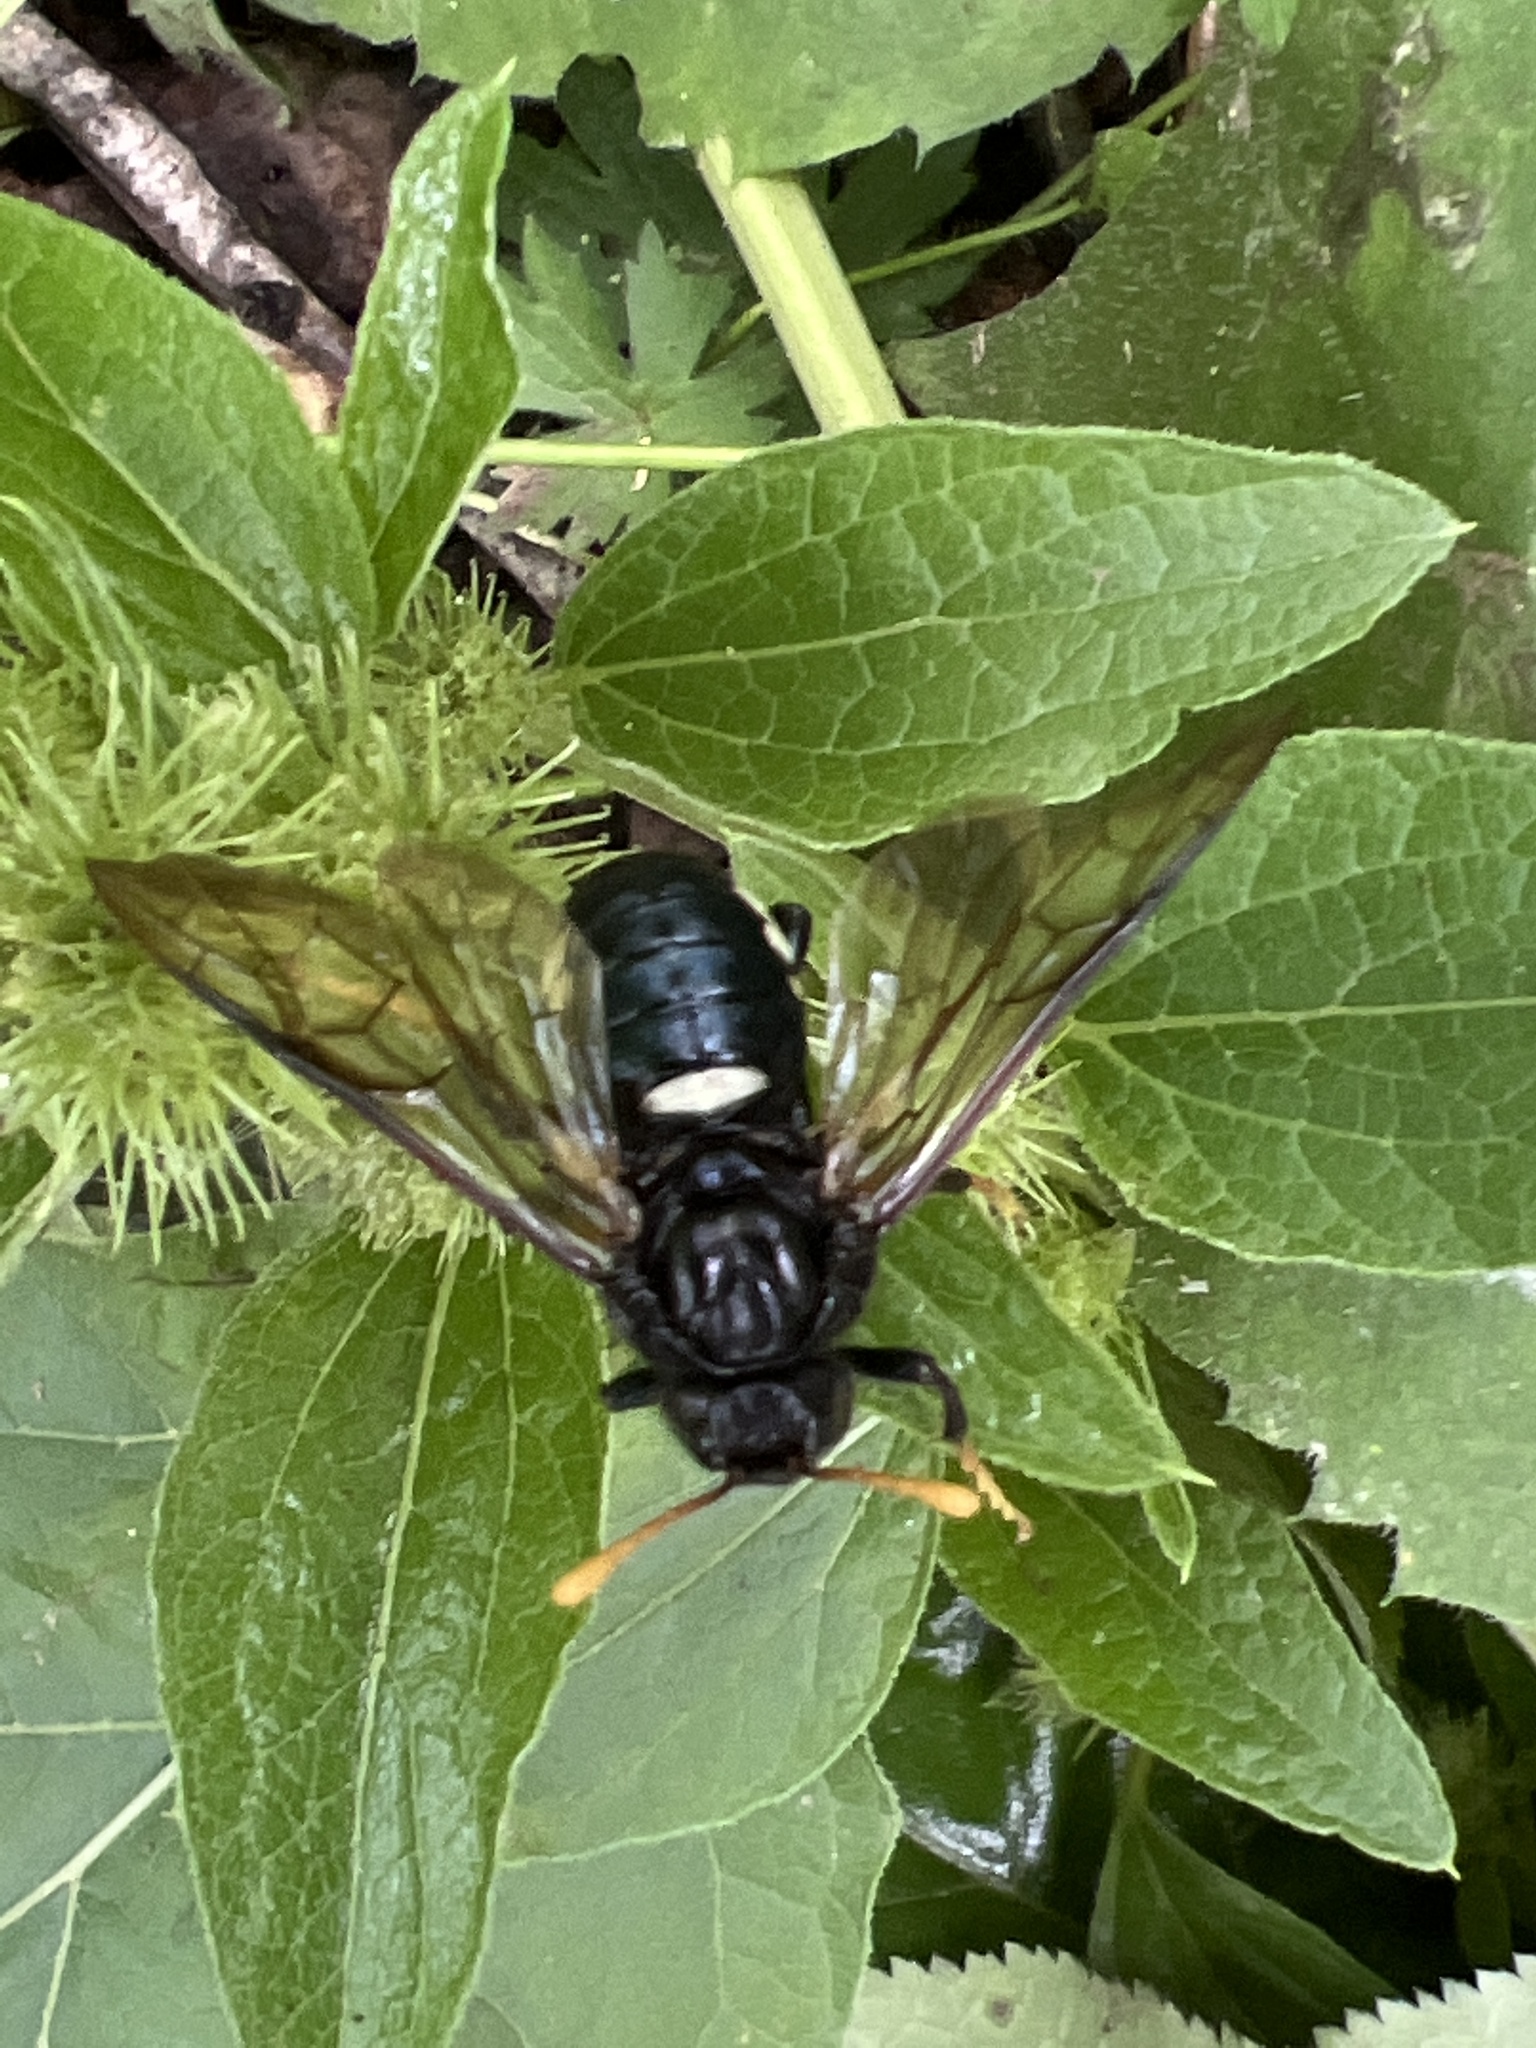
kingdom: Animalia
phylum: Arthropoda
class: Insecta
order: Hymenoptera
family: Cimbicidae
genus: Cimbex
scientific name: Cimbex americana
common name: Elm sawfly
